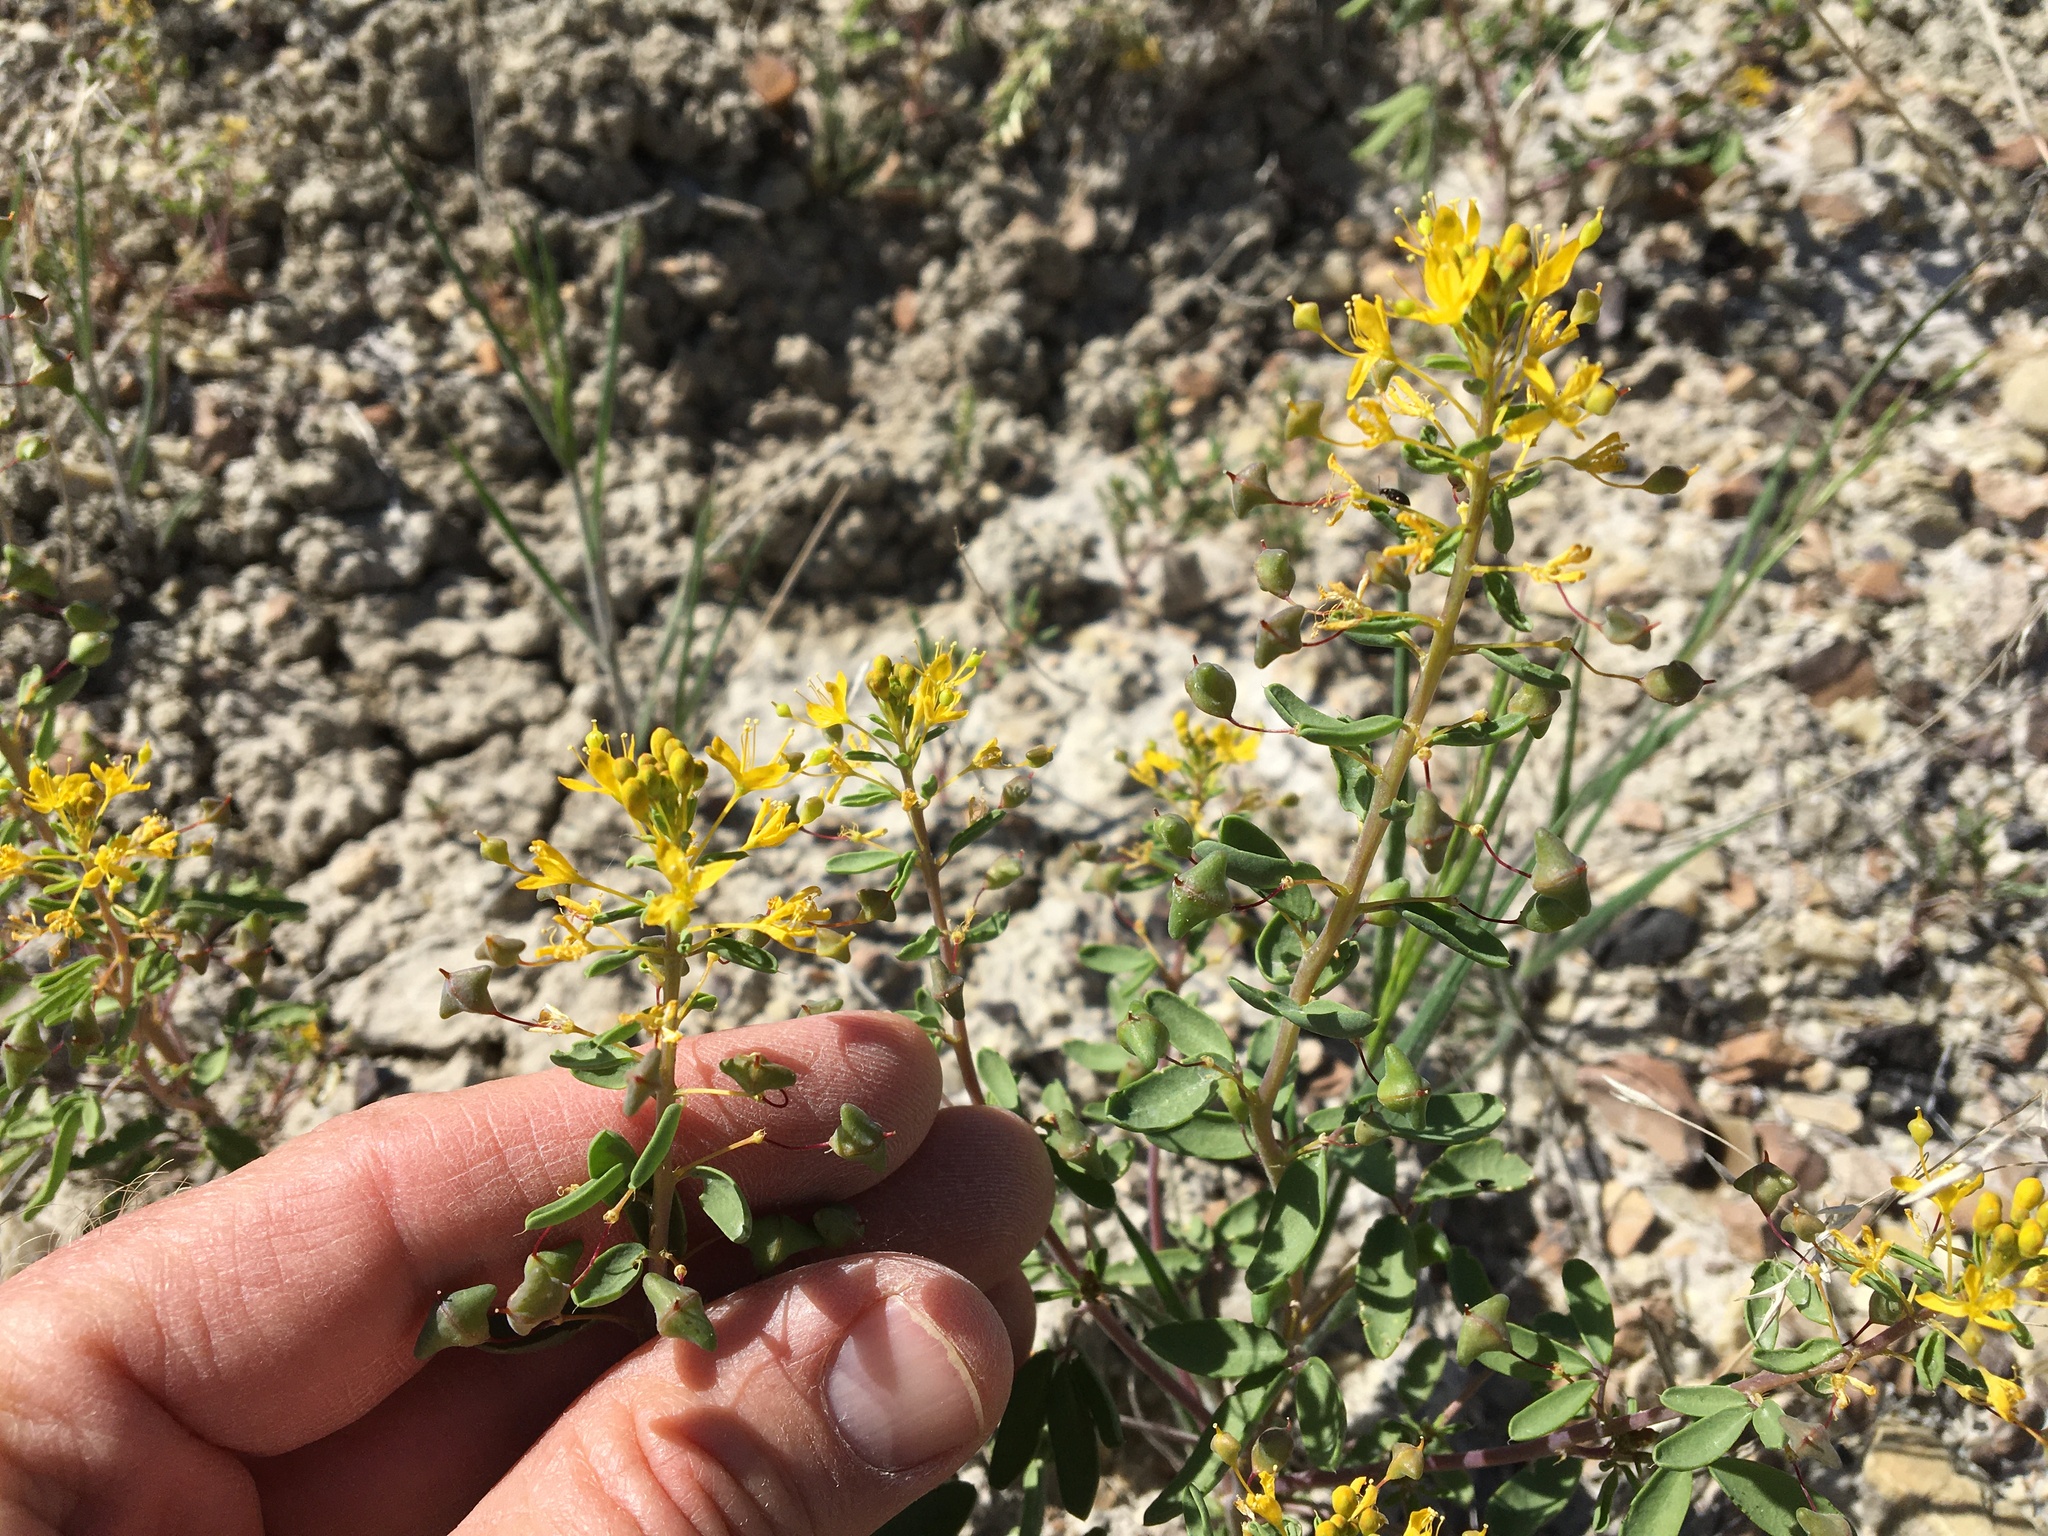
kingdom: Plantae
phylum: Tracheophyta
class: Magnoliopsida
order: Brassicales
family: Cleomaceae
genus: Cleomella
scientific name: Cleomella hillmanii
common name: Desert stinkweed
